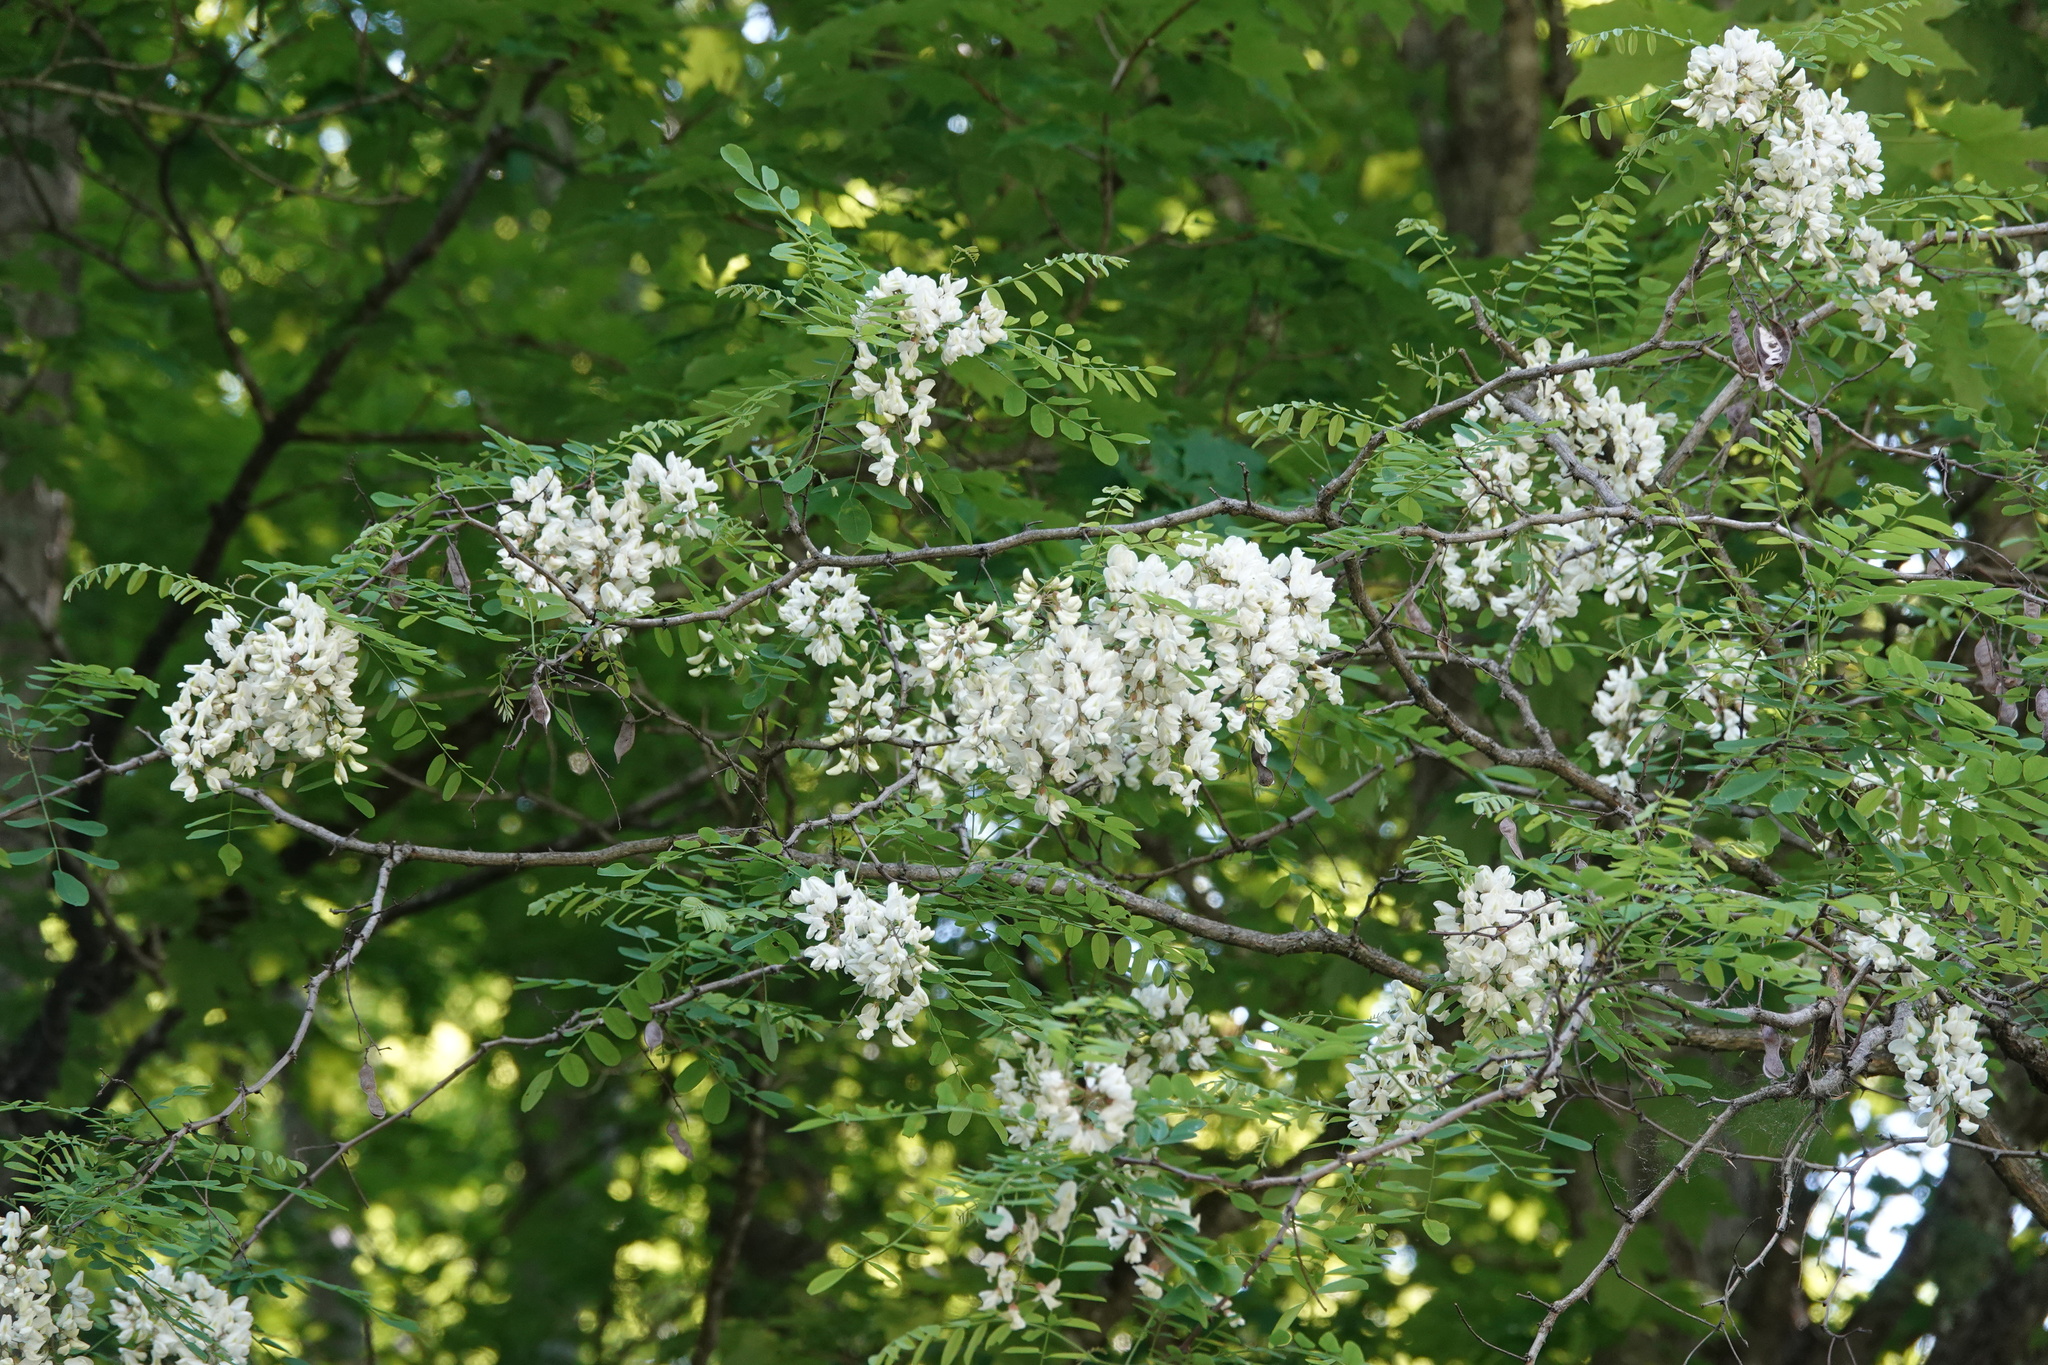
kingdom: Plantae
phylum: Tracheophyta
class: Magnoliopsida
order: Fabales
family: Fabaceae
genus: Robinia
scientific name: Robinia pseudoacacia
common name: Black locust
